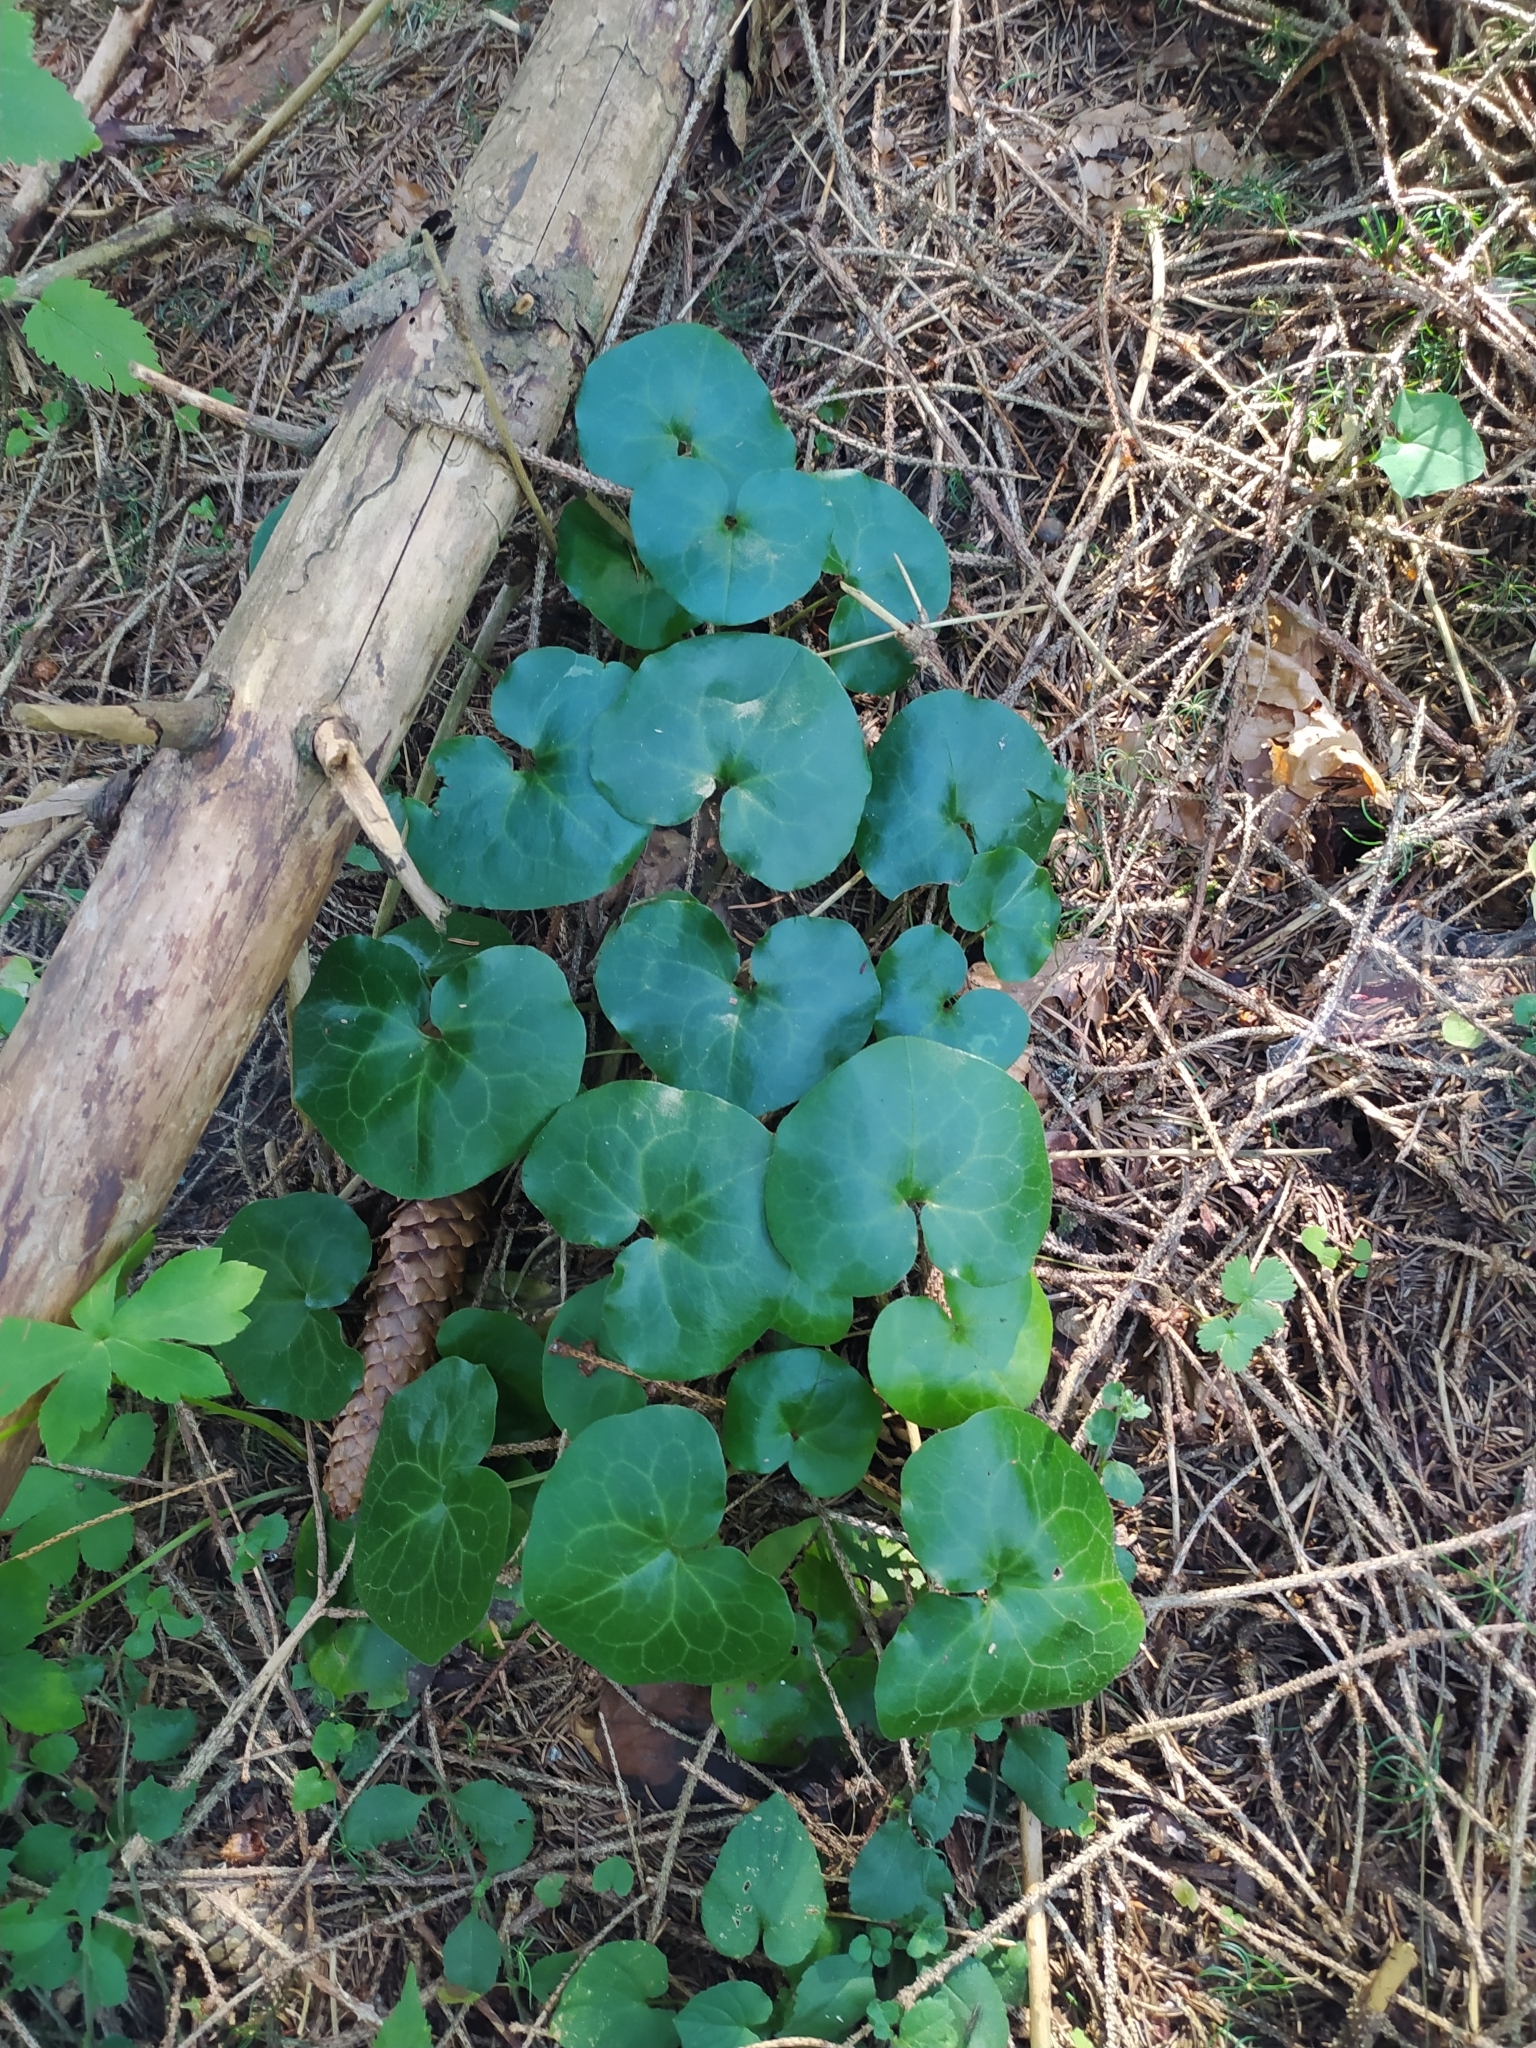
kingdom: Plantae
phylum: Tracheophyta
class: Magnoliopsida
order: Piperales
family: Aristolochiaceae
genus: Asarum
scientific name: Asarum europaeum
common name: Asarabacca
